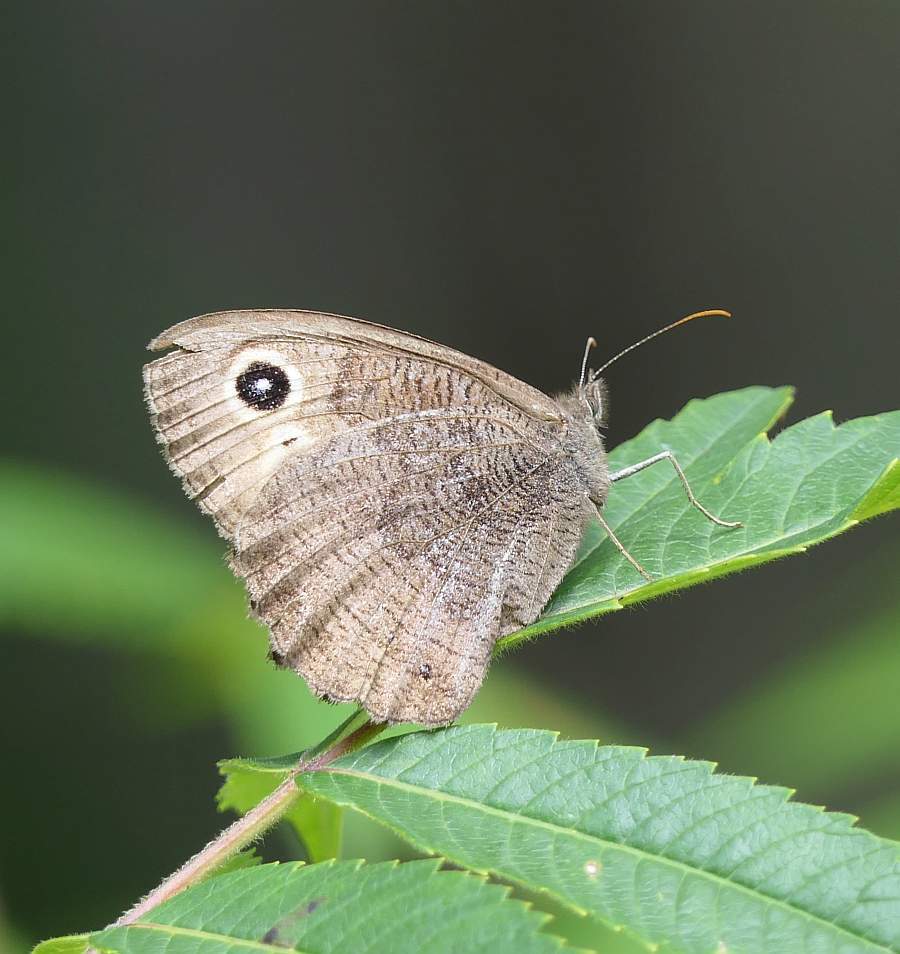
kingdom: Animalia
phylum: Arthropoda
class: Insecta
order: Lepidoptera
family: Nymphalidae
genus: Cercyonis
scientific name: Cercyonis pegala
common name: Common wood-nymph
